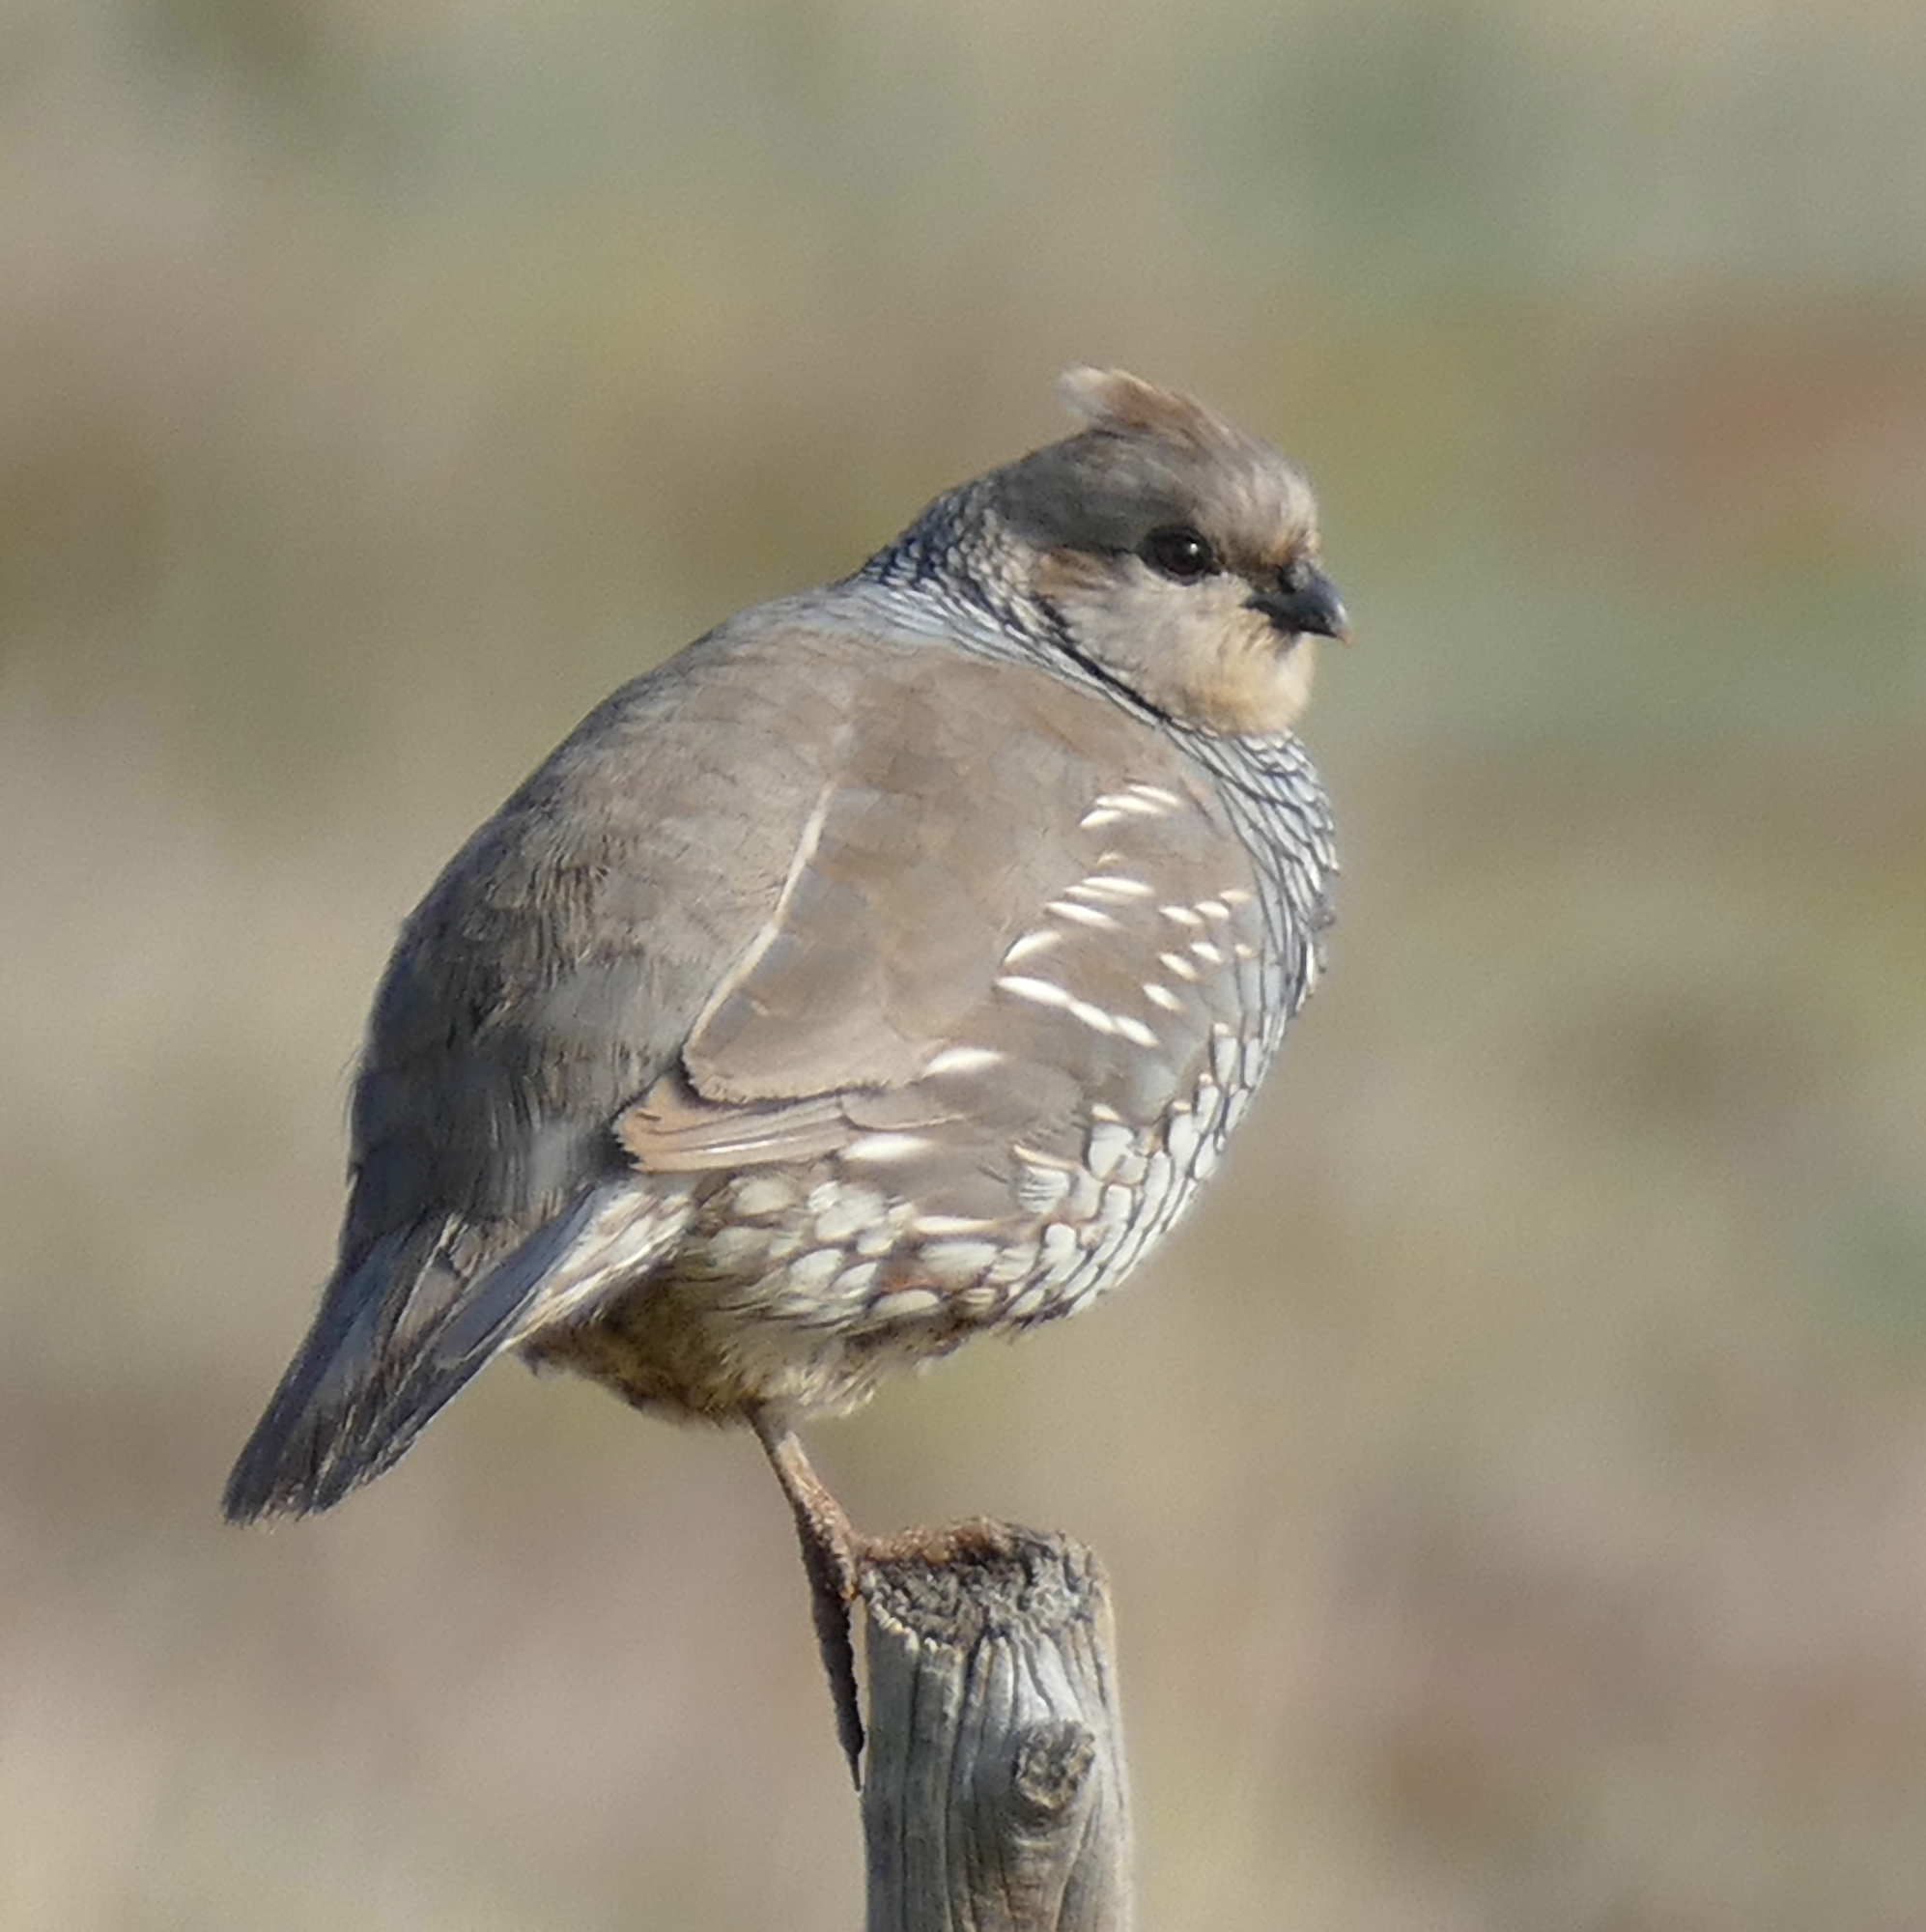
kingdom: Animalia
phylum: Chordata
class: Aves
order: Galliformes
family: Odontophoridae
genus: Callipepla
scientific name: Callipepla squamata
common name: Scaled quail
